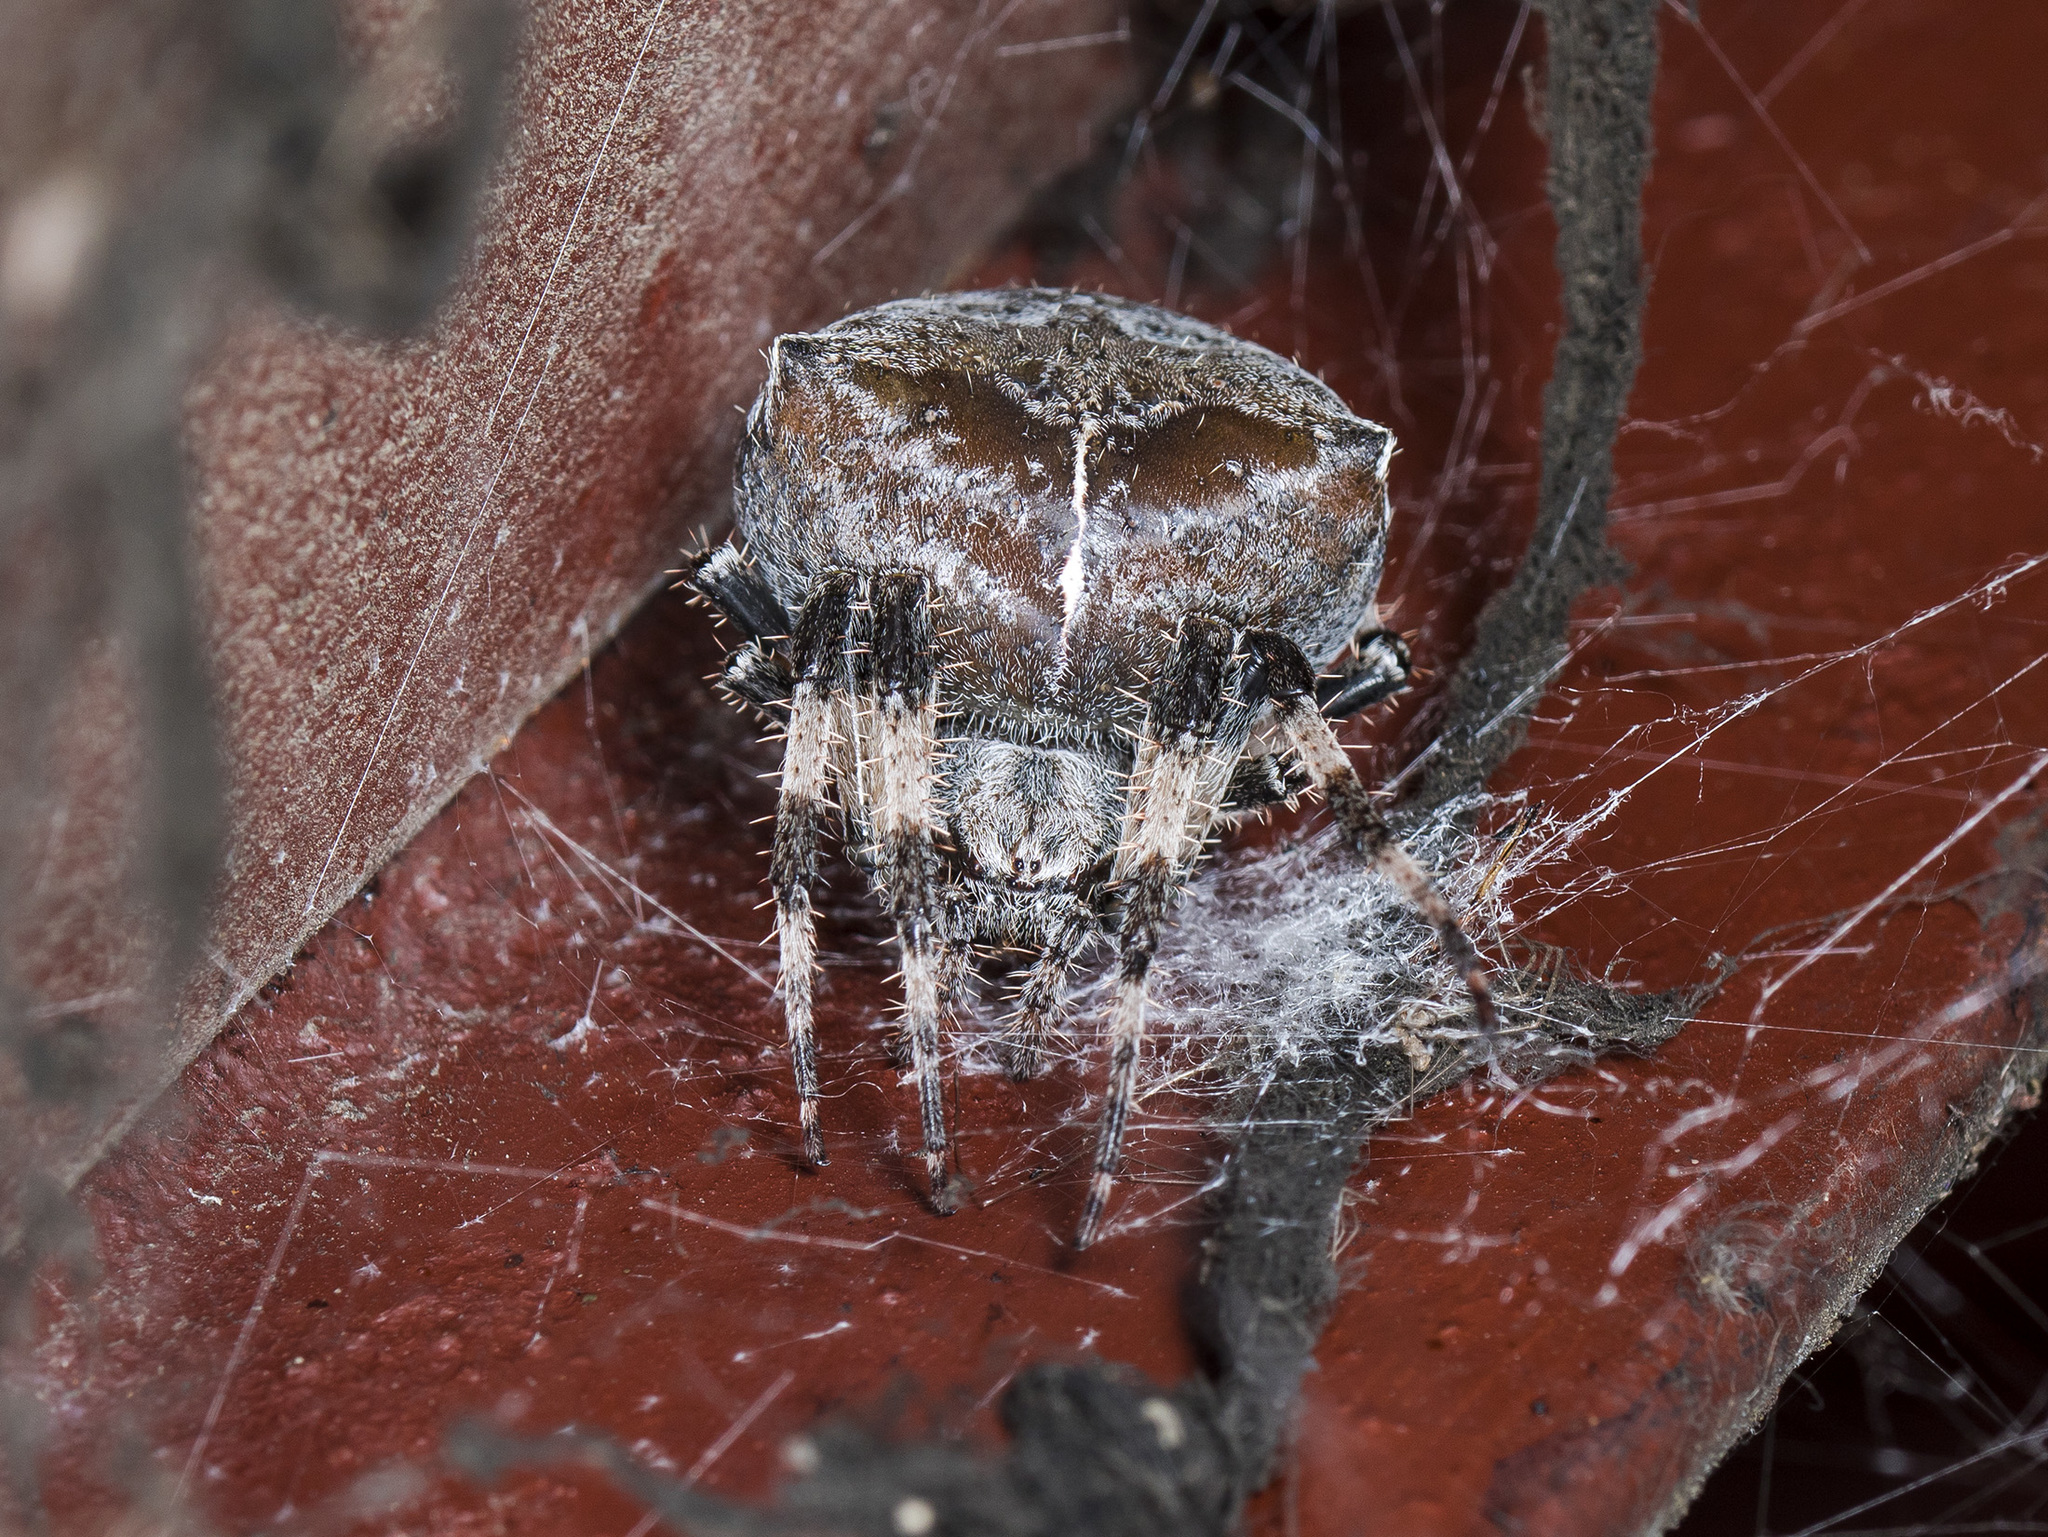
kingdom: Animalia
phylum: Arthropoda
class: Arachnida
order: Araneae
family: Araneidae
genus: Araneus
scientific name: Araneus tartaricus
